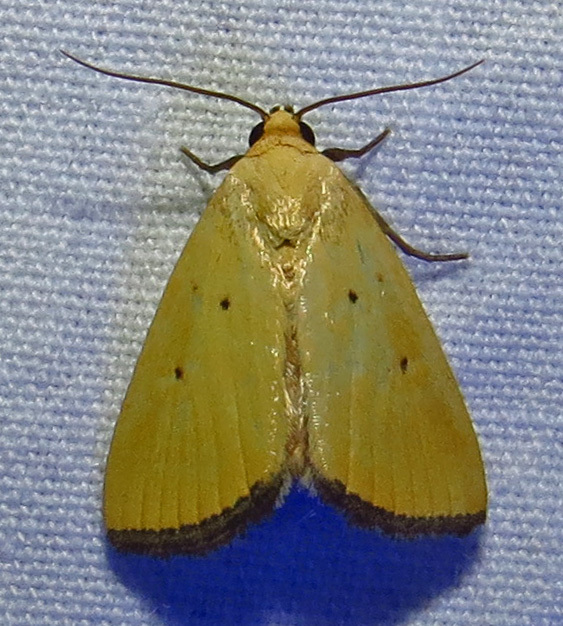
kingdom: Animalia
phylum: Arthropoda
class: Insecta
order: Lepidoptera
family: Noctuidae
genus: Marimatha
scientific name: Marimatha nigrofimbria
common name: Black-bordered lemon moth
